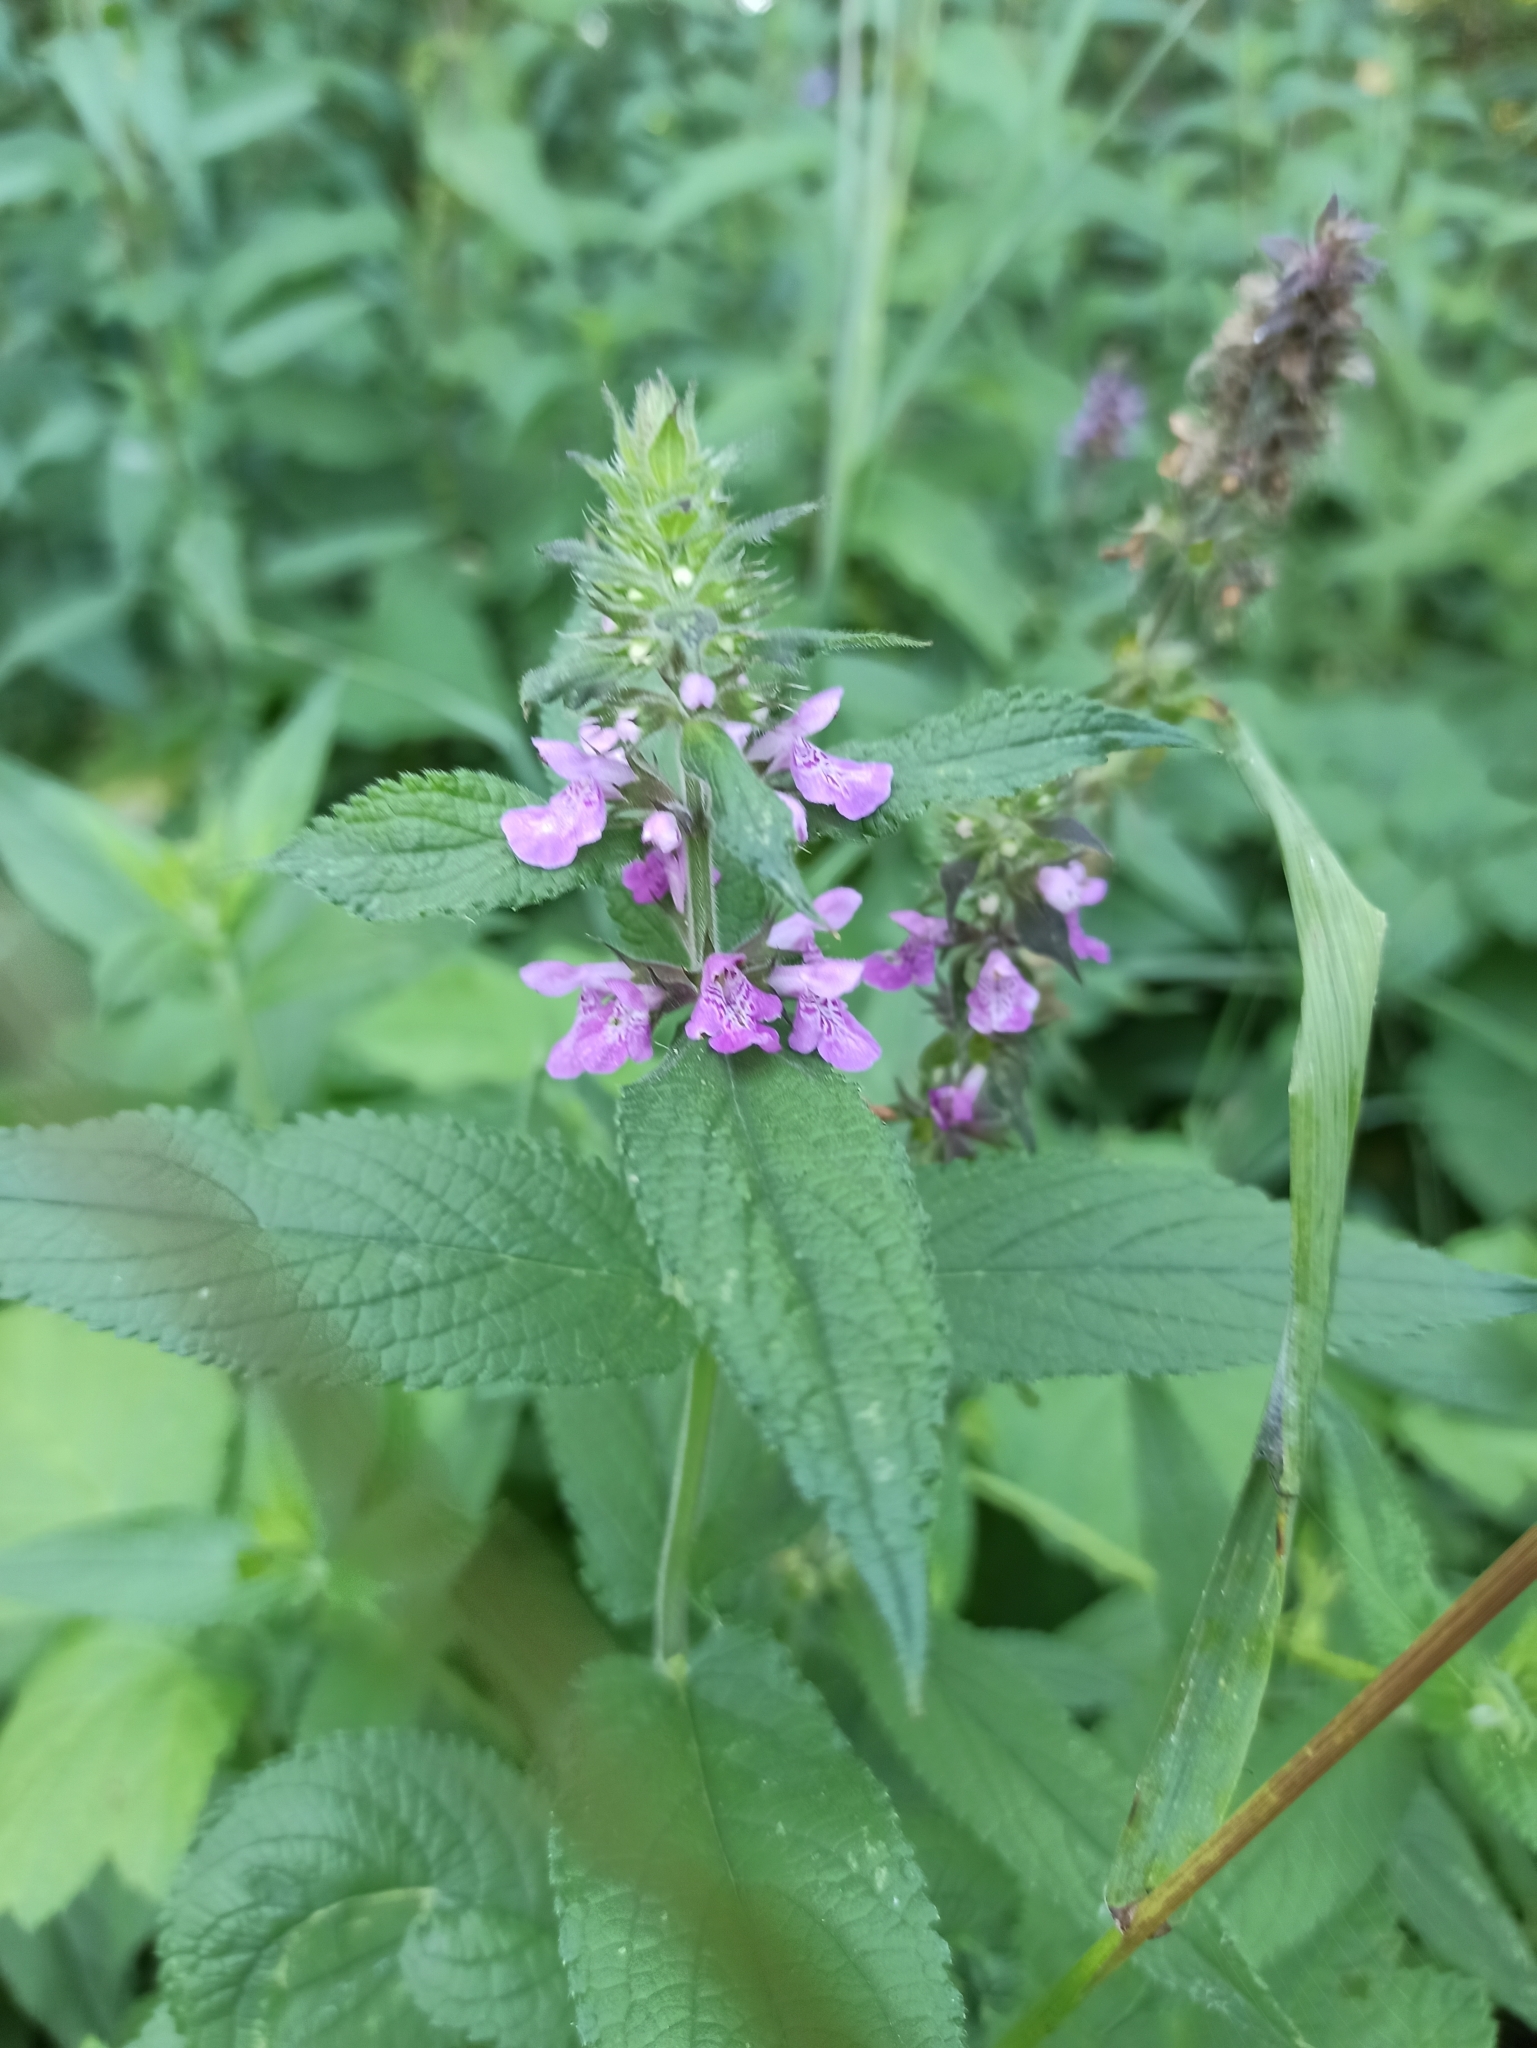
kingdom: Plantae
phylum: Tracheophyta
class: Magnoliopsida
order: Lamiales
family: Lamiaceae
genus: Stachys
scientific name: Stachys palustris
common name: Marsh woundwort
